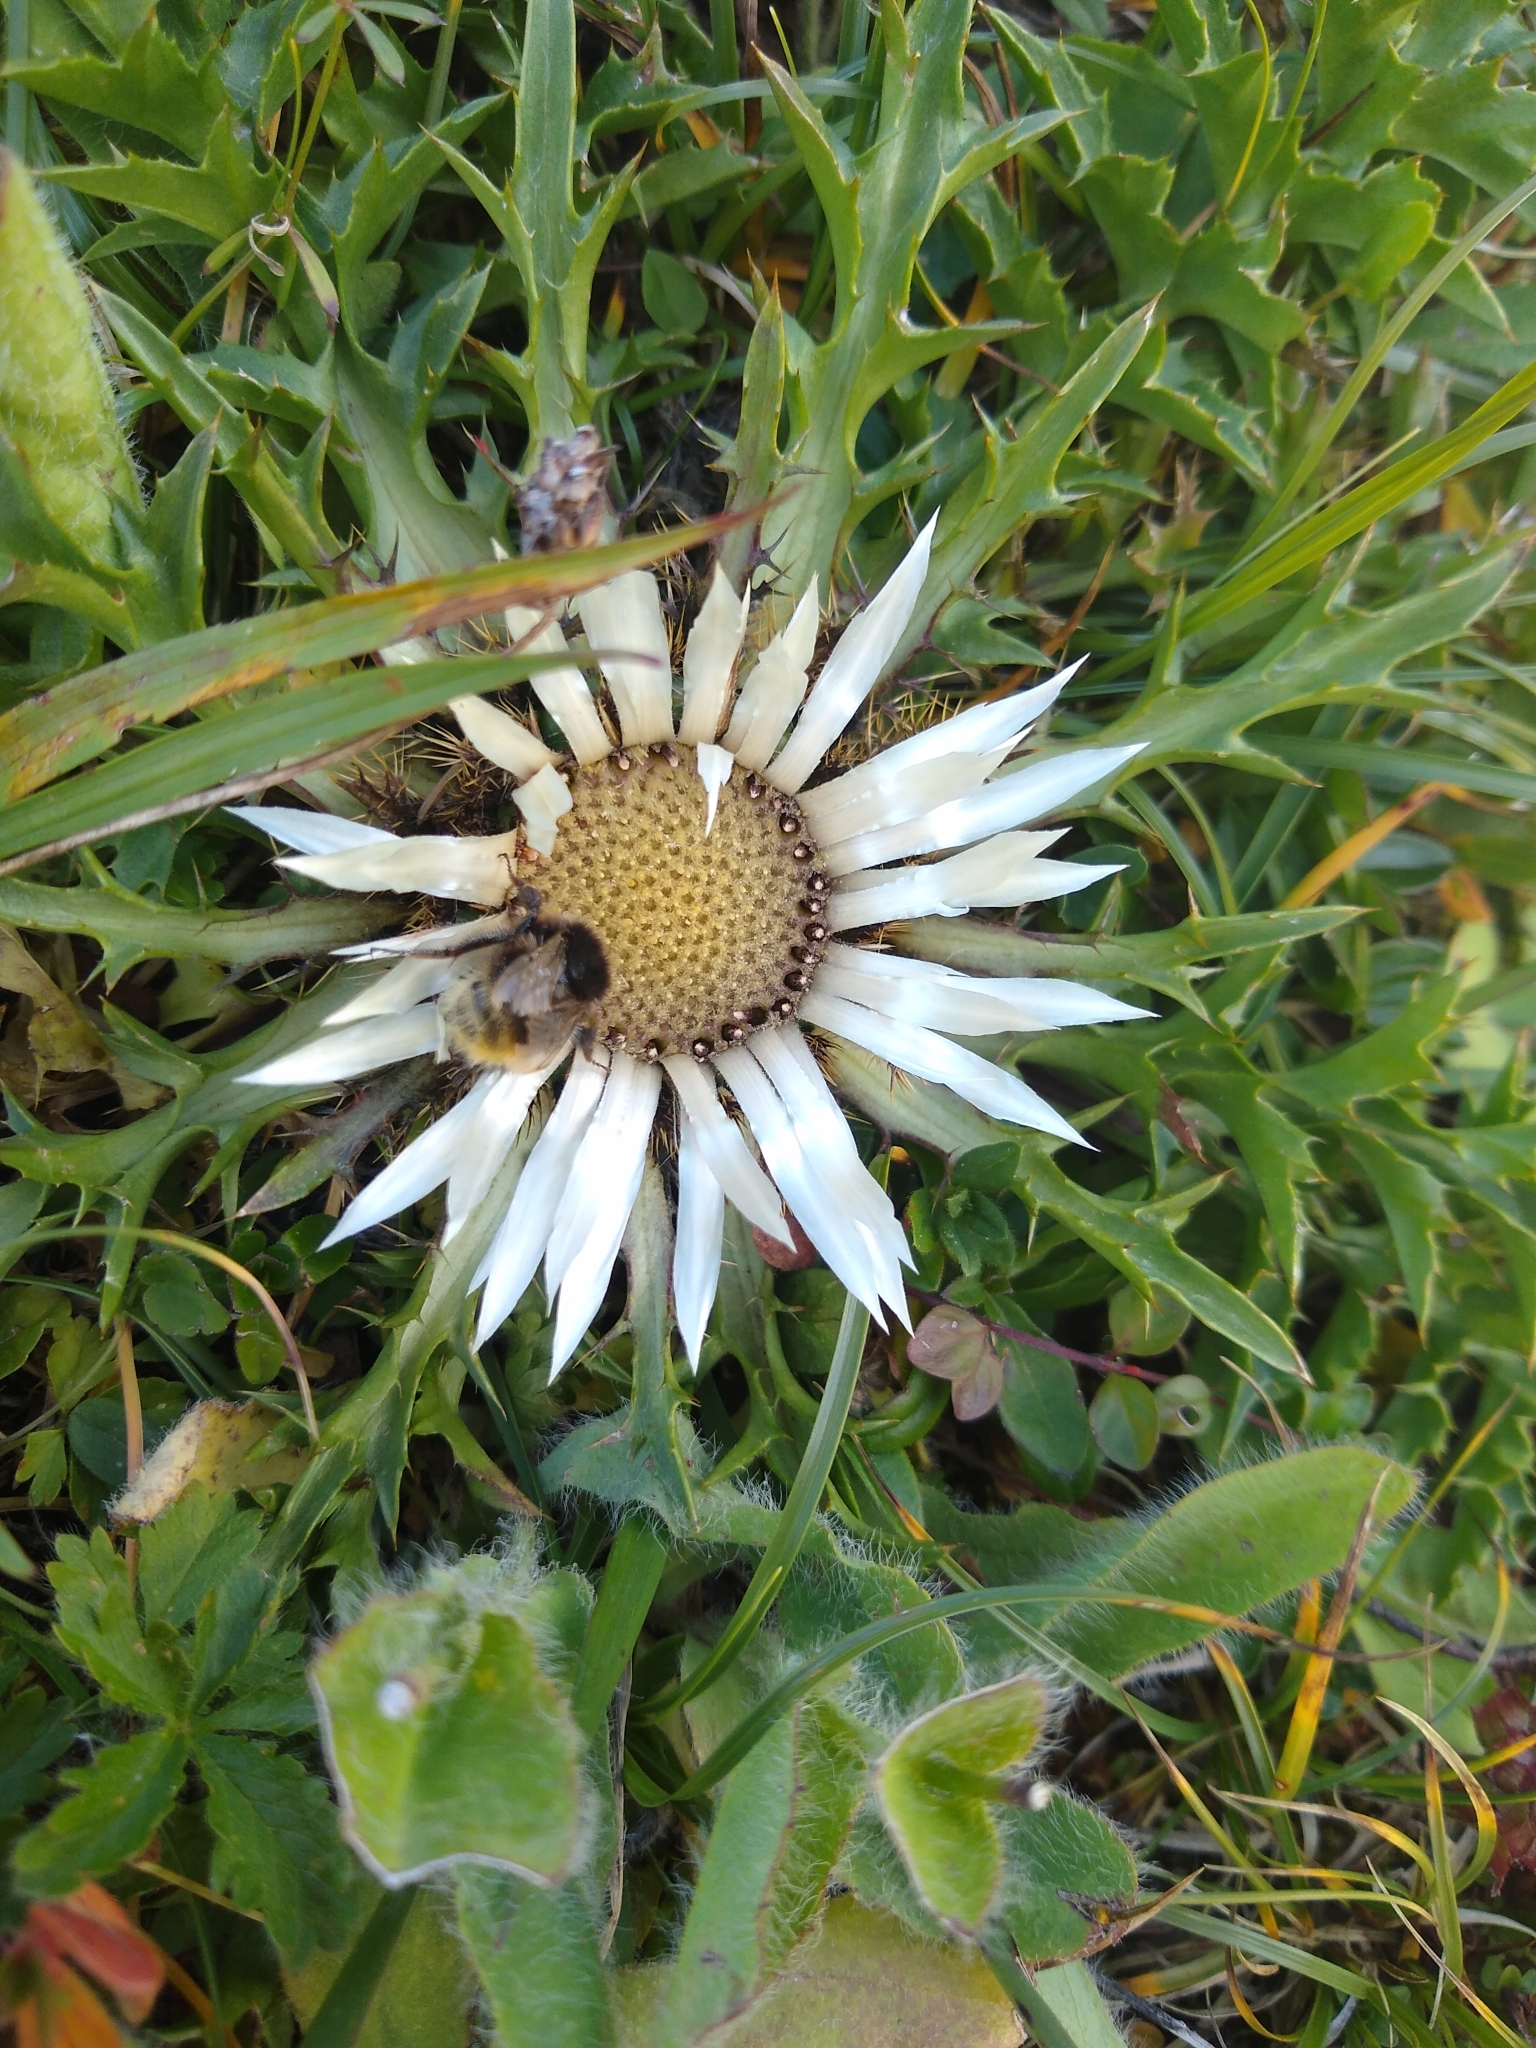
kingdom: Plantae
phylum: Tracheophyta
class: Magnoliopsida
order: Asterales
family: Asteraceae
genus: Carlina
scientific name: Carlina acaulis
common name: Stemless carline thistle
